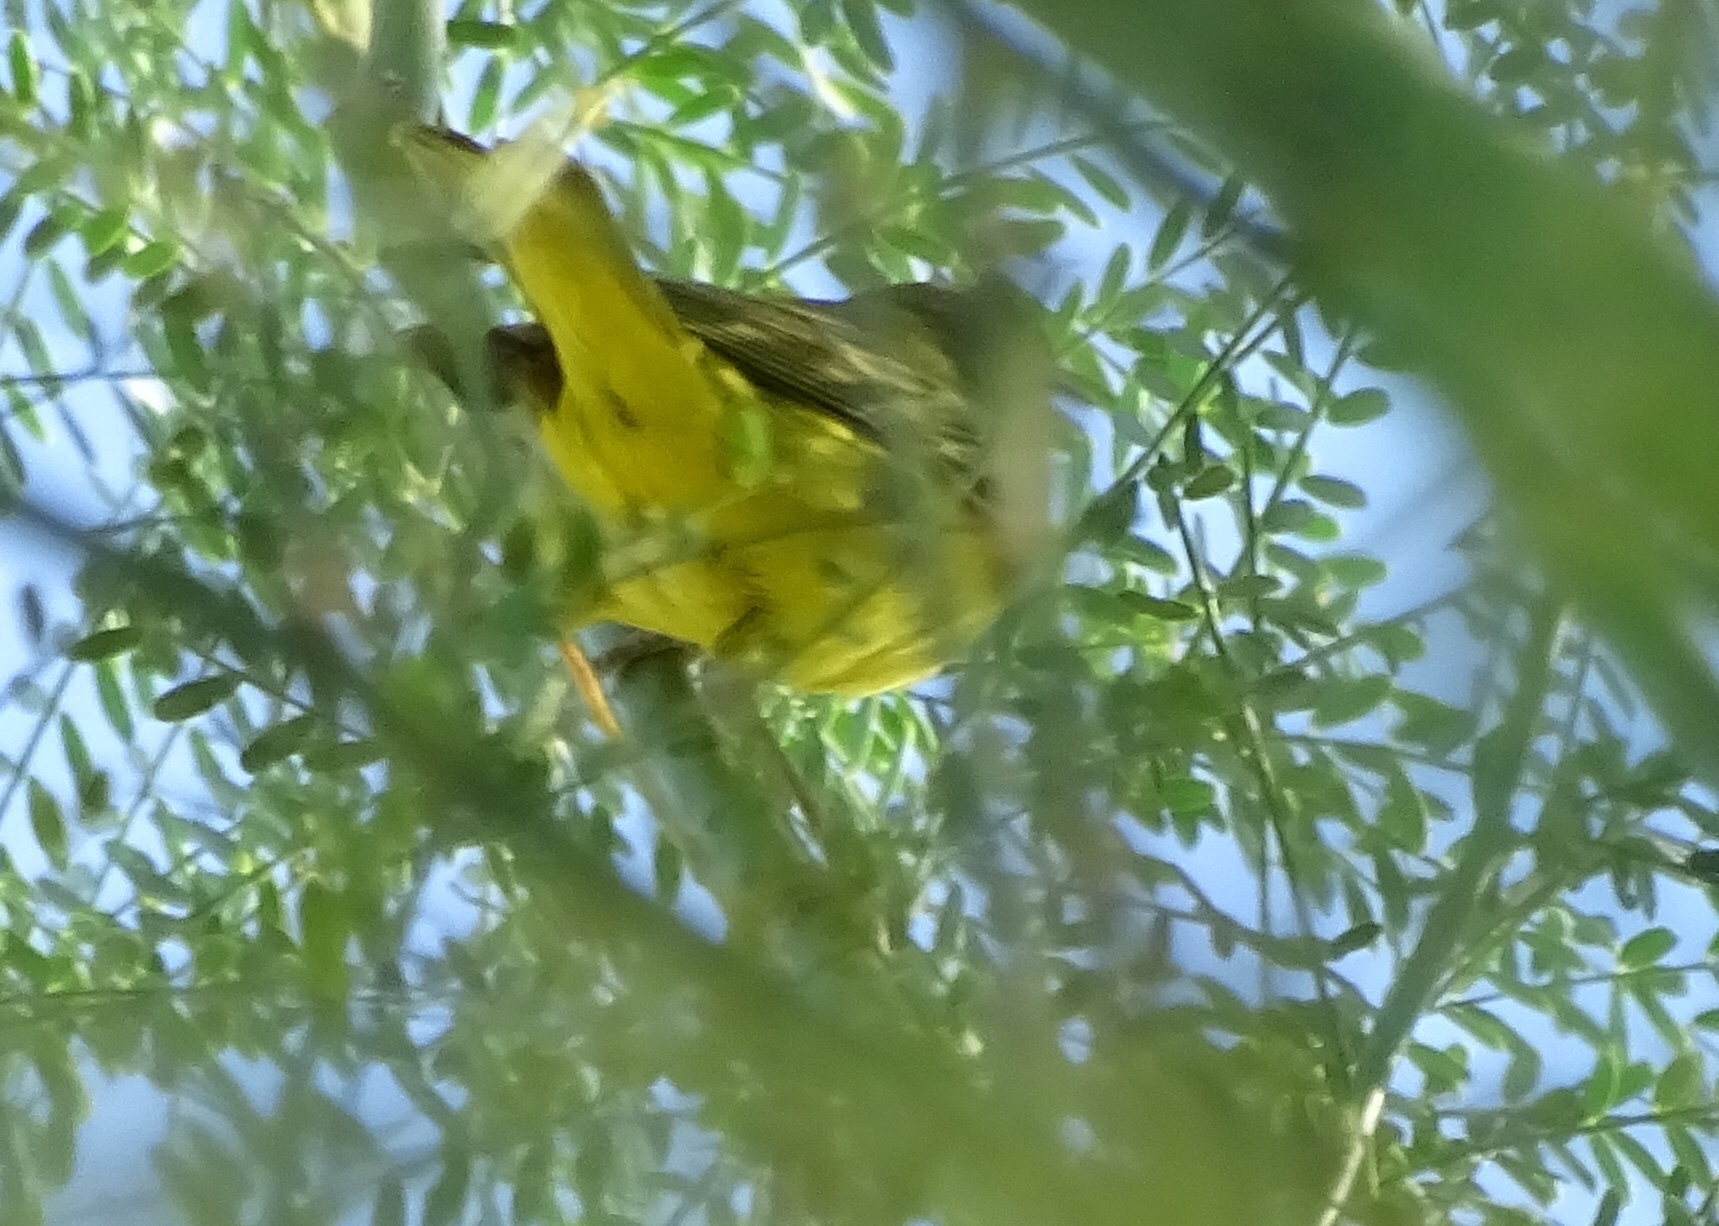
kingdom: Animalia
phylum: Chordata
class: Aves
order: Passeriformes
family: Parulidae
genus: Setophaga
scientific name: Setophaga petechia
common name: Yellow warbler
